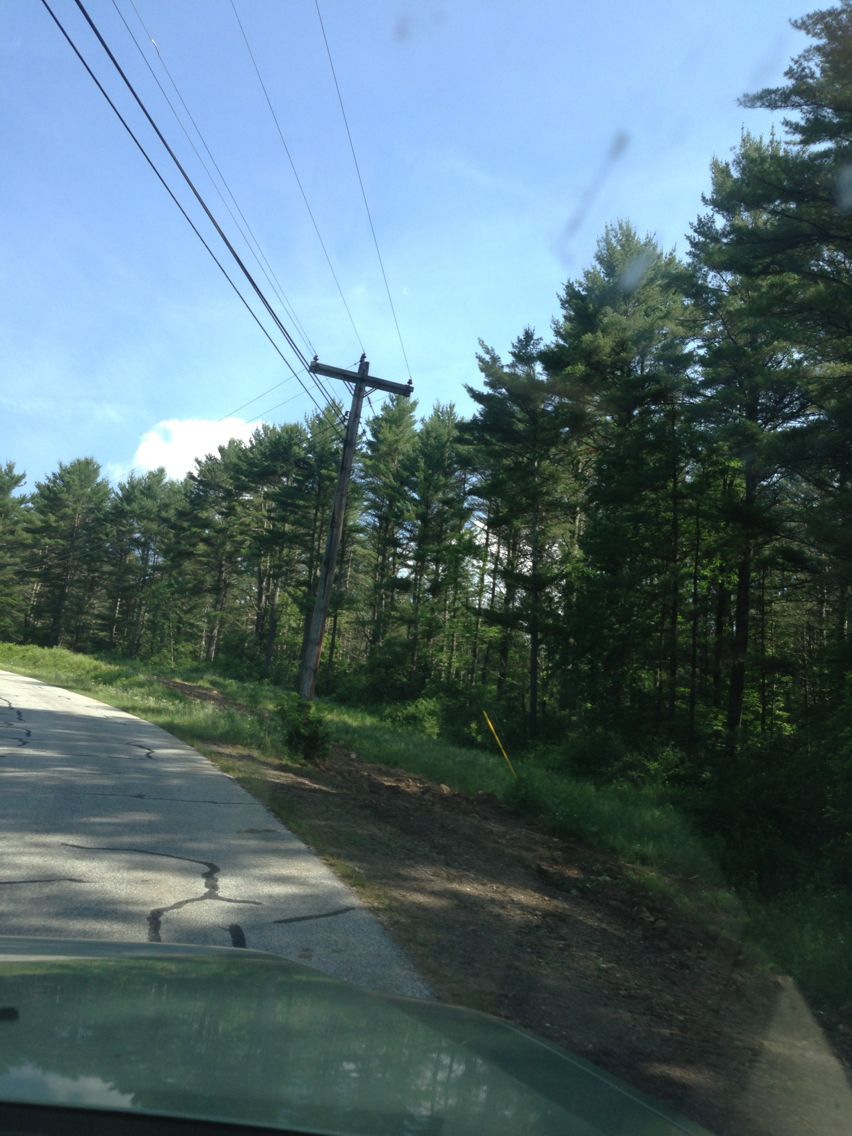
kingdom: Plantae
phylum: Tracheophyta
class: Pinopsida
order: Pinales
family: Pinaceae
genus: Pinus
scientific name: Pinus strobus
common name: Weymouth pine
